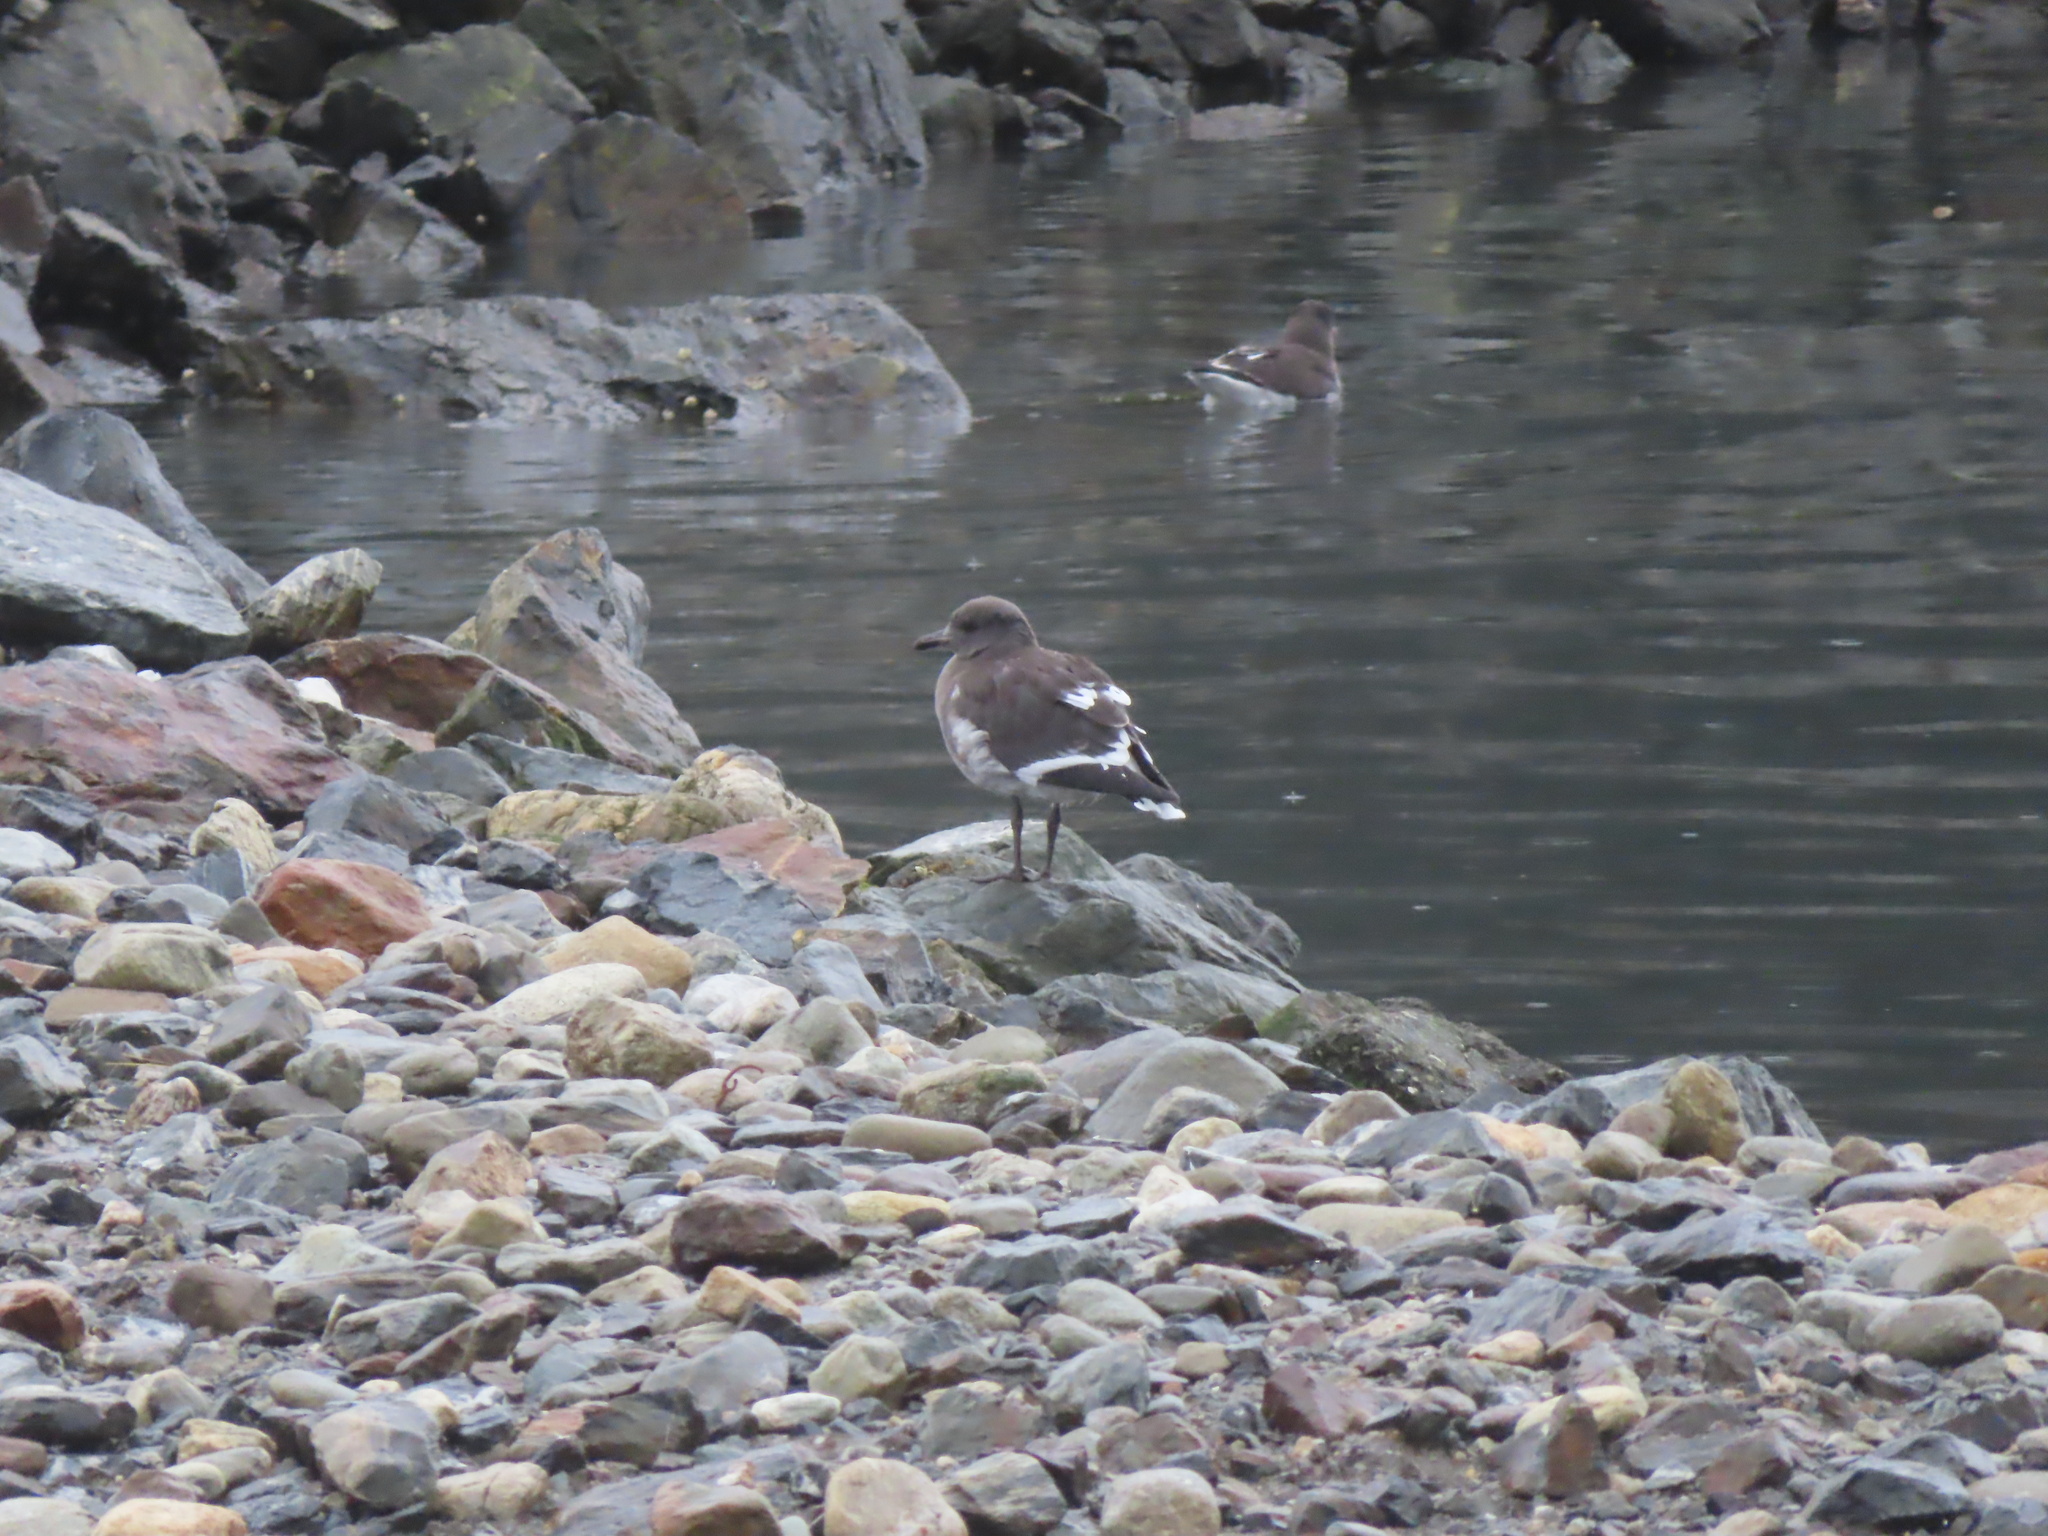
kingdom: Animalia
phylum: Chordata
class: Aves
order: Charadriiformes
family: Laridae
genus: Leucophaeus
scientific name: Leucophaeus scoresbii
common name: Dolphin gull
